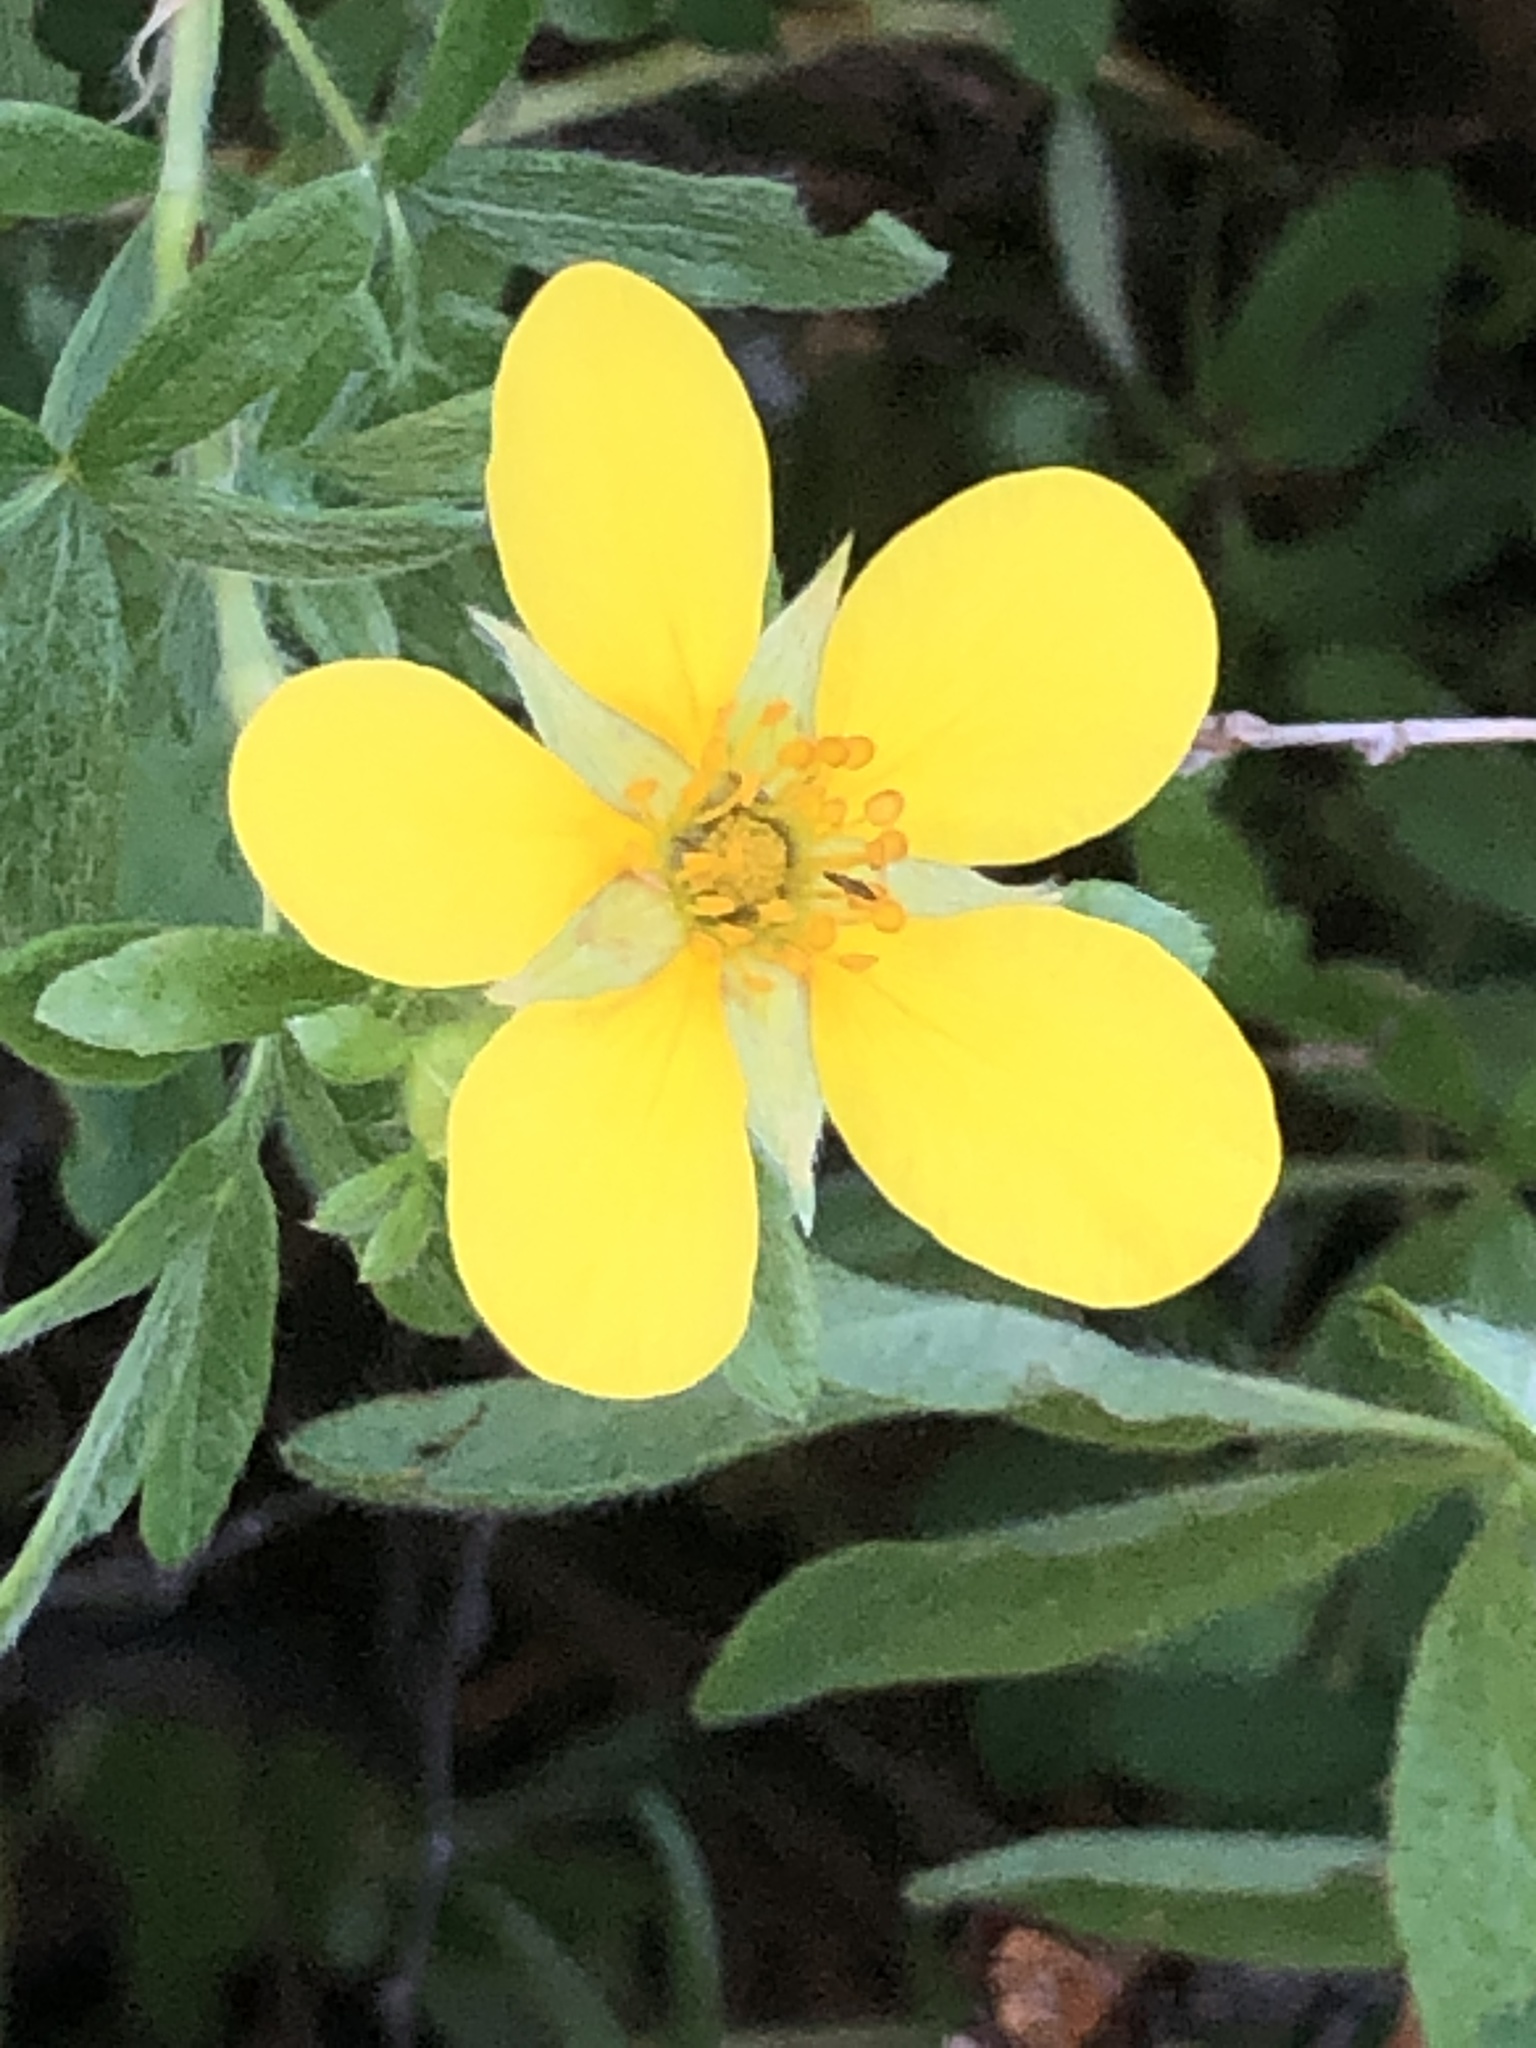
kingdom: Plantae
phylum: Tracheophyta
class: Magnoliopsida
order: Rosales
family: Rosaceae
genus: Dasiphora
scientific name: Dasiphora fruticosa
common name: Shrubby cinquefoil
